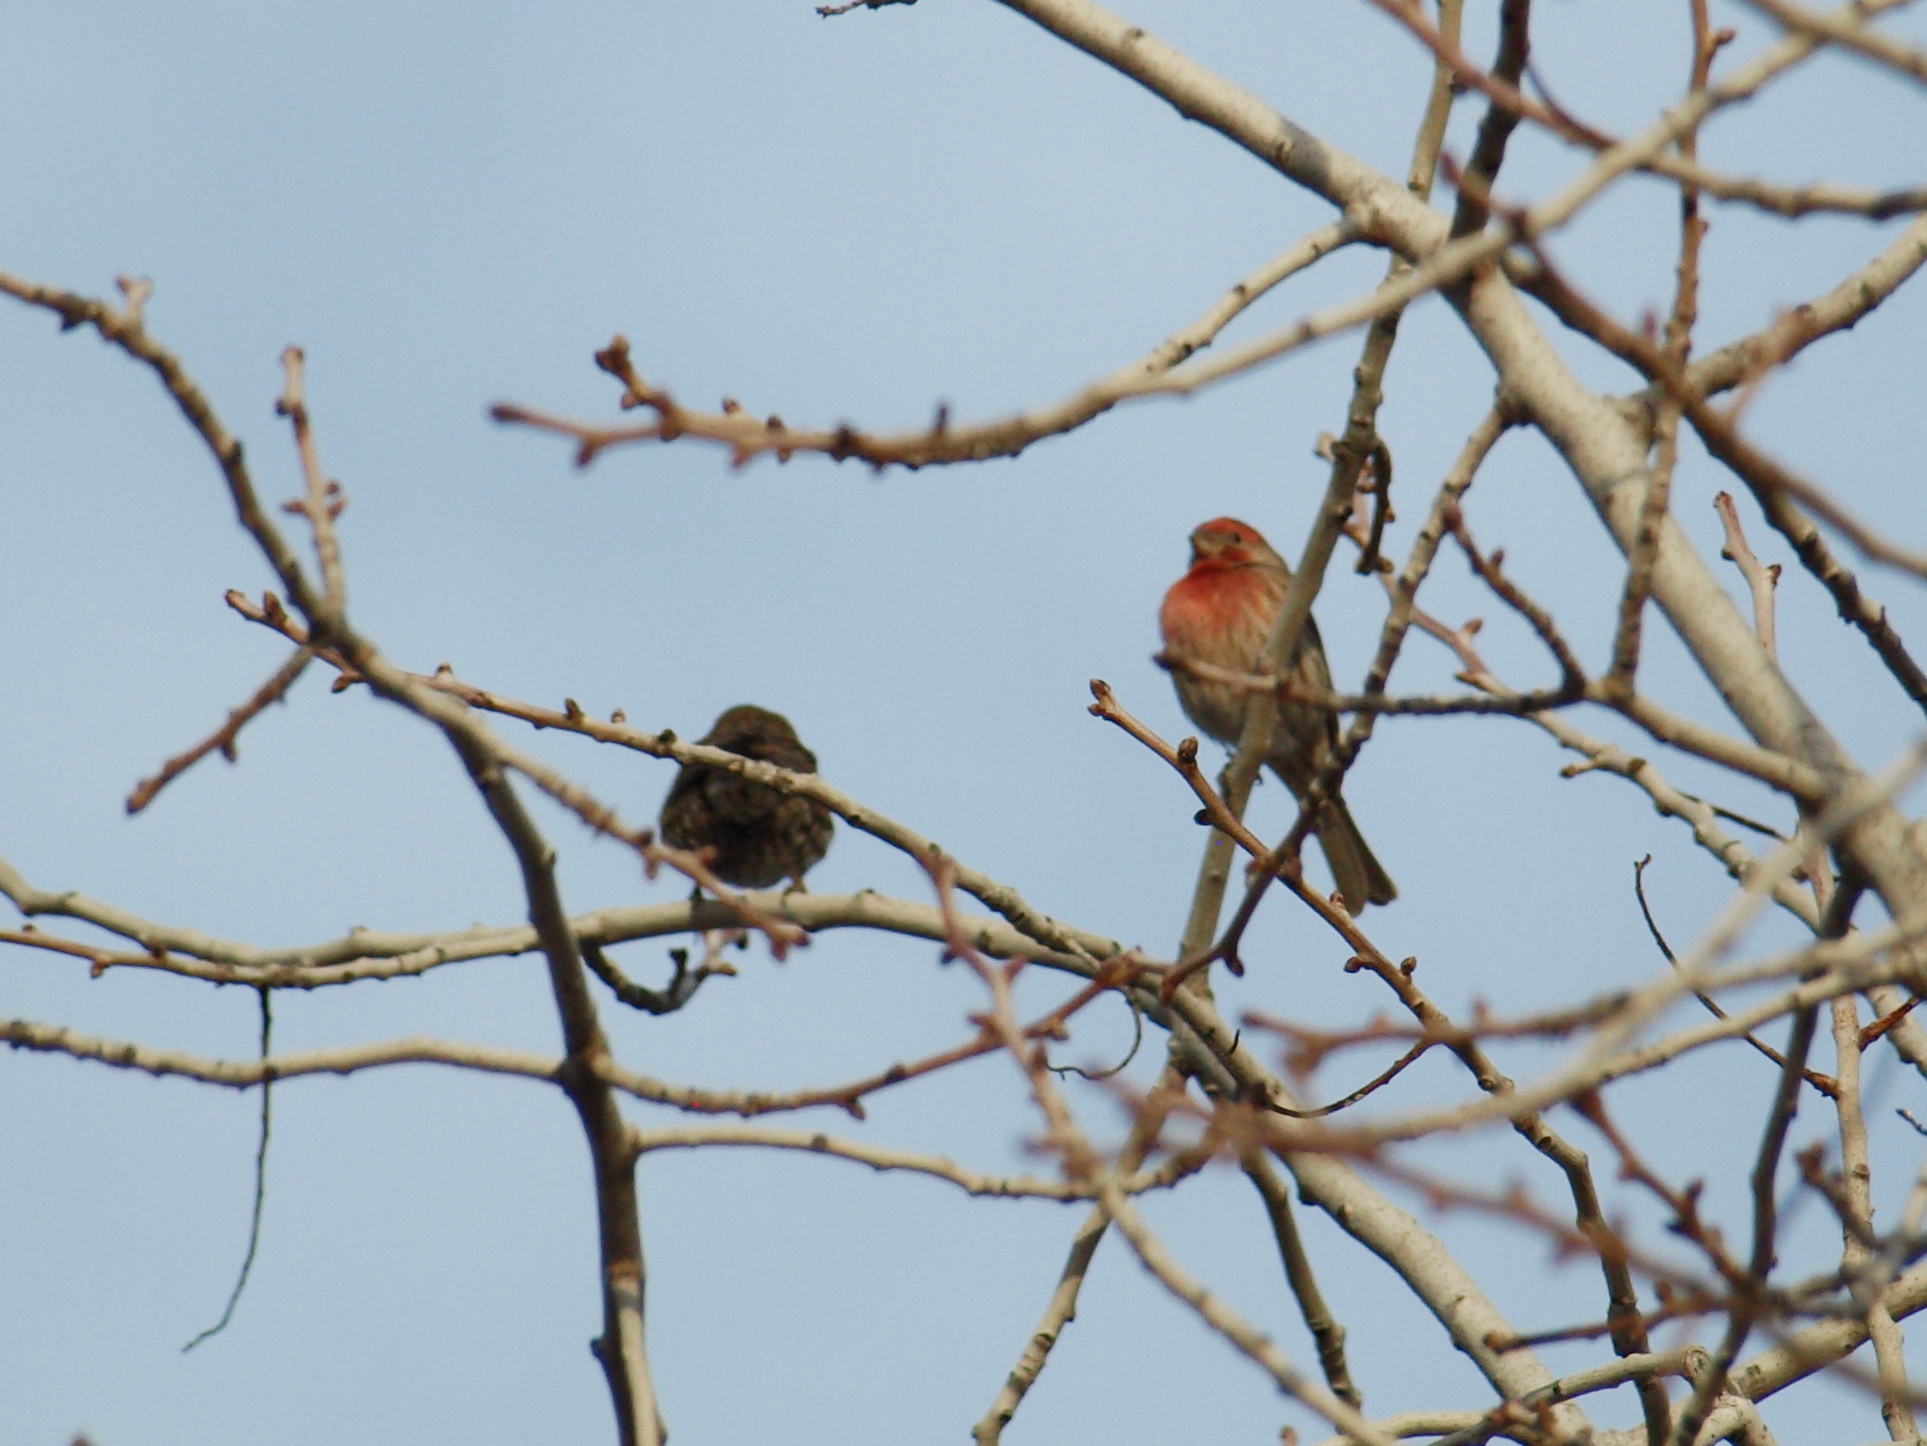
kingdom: Animalia
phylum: Chordata
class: Aves
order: Passeriformes
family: Fringillidae
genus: Haemorhous
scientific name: Haemorhous mexicanus
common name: House finch
